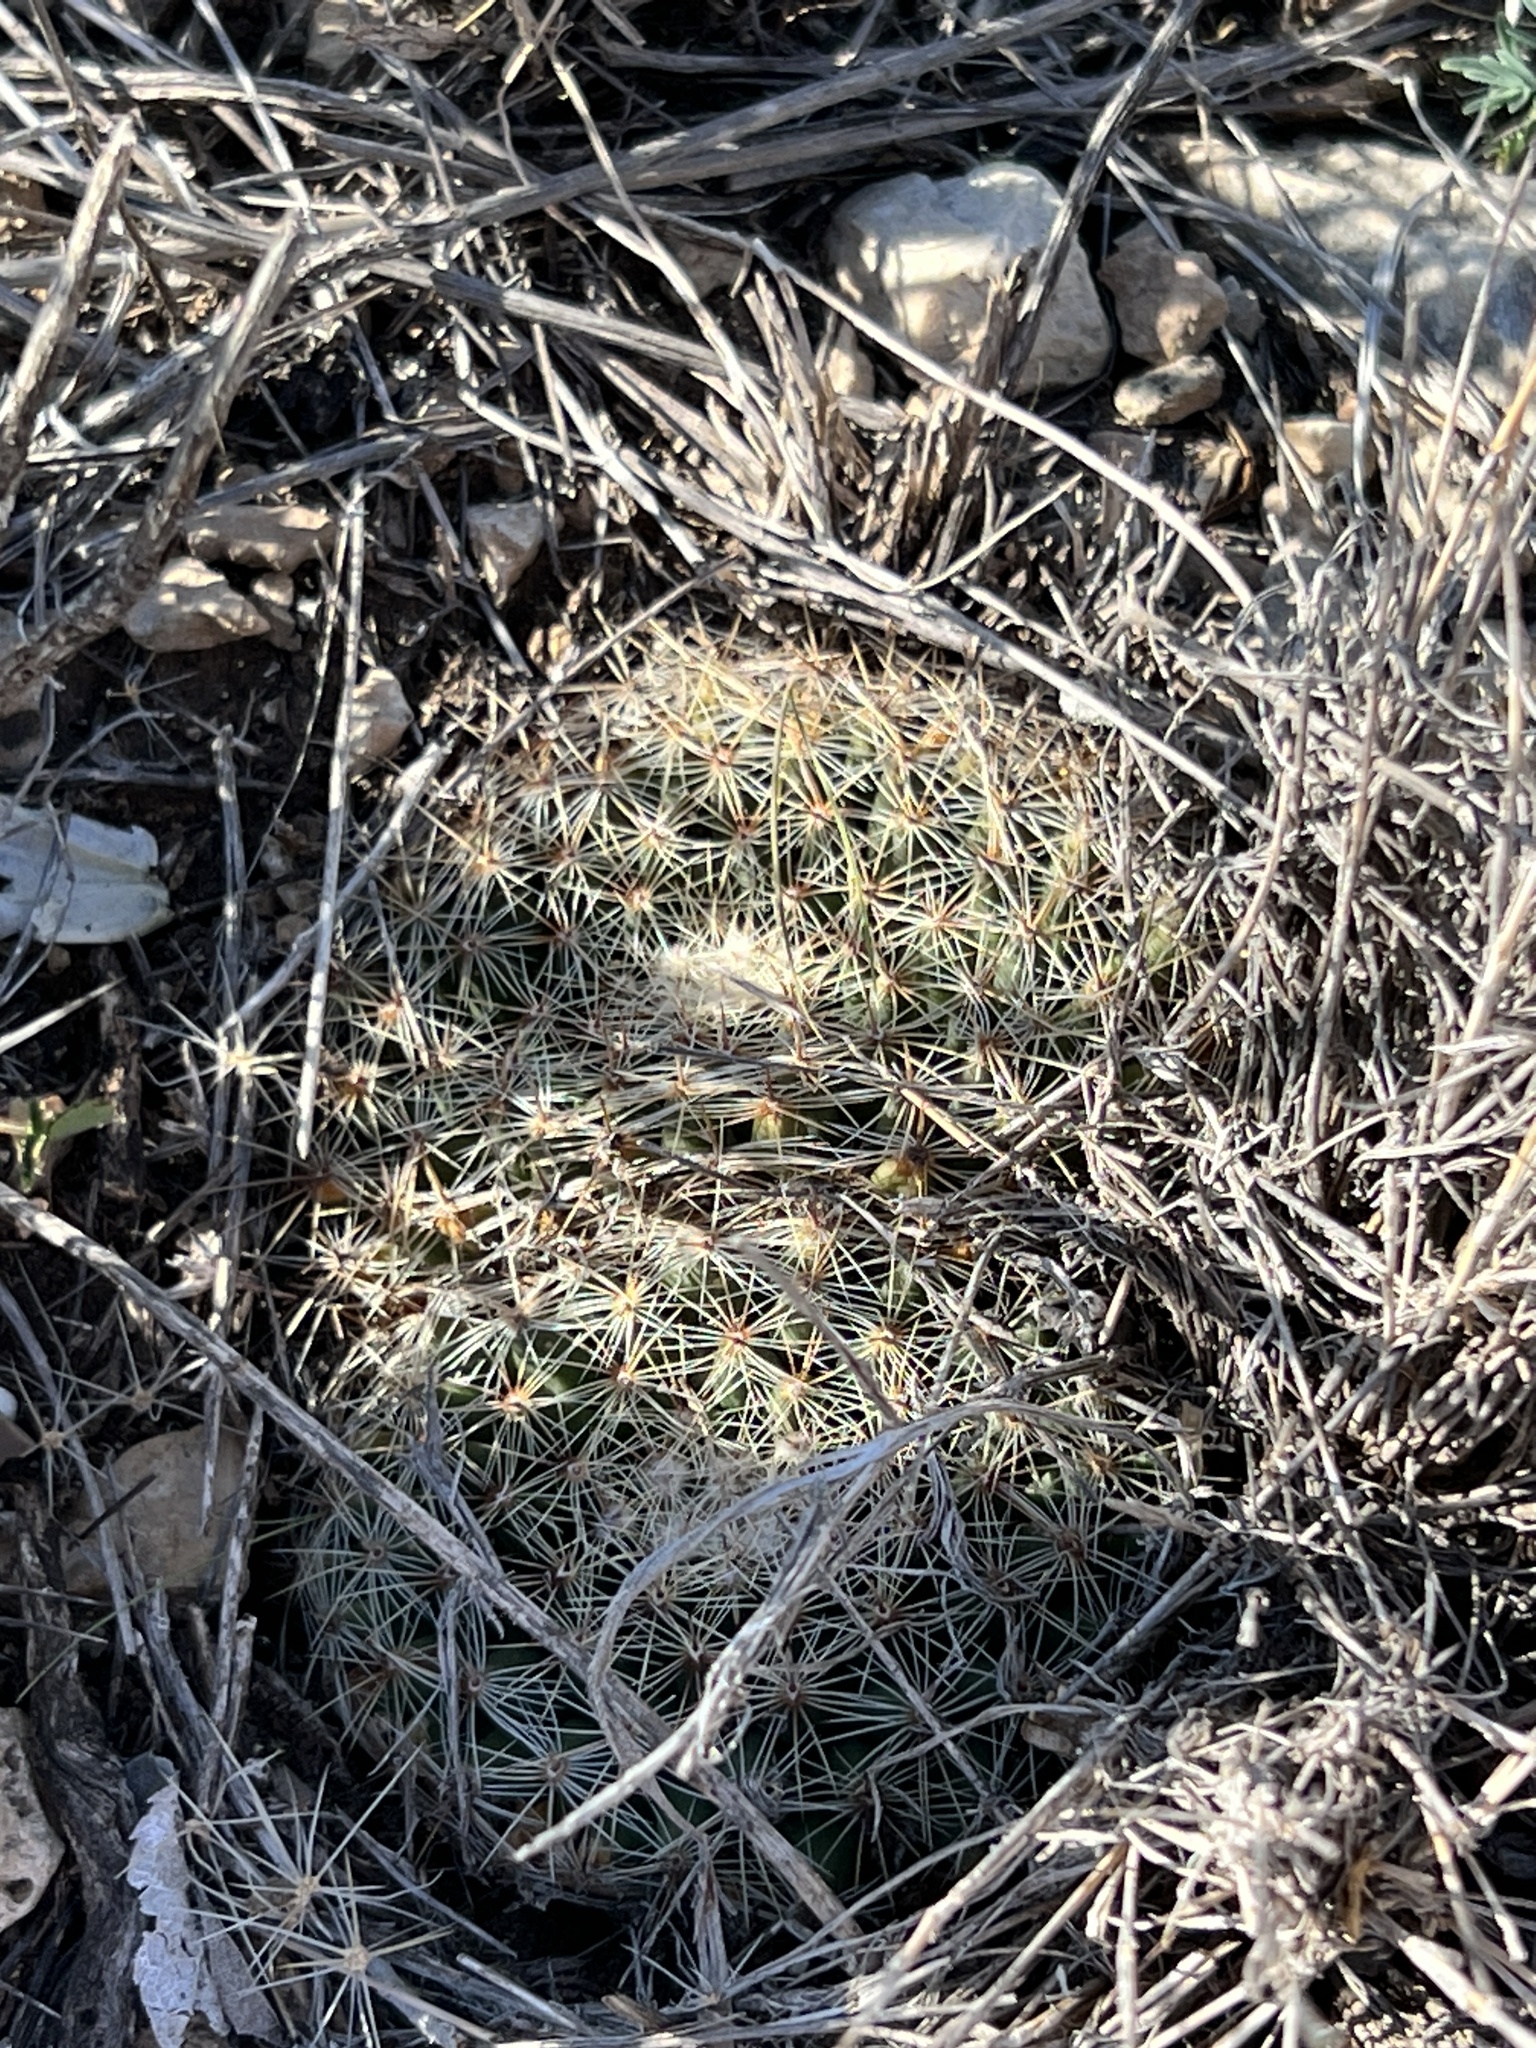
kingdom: Plantae
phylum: Tracheophyta
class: Magnoliopsida
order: Caryophyllales
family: Cactaceae
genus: Mammillaria
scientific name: Mammillaria heyderi
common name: Little nipple cactus
